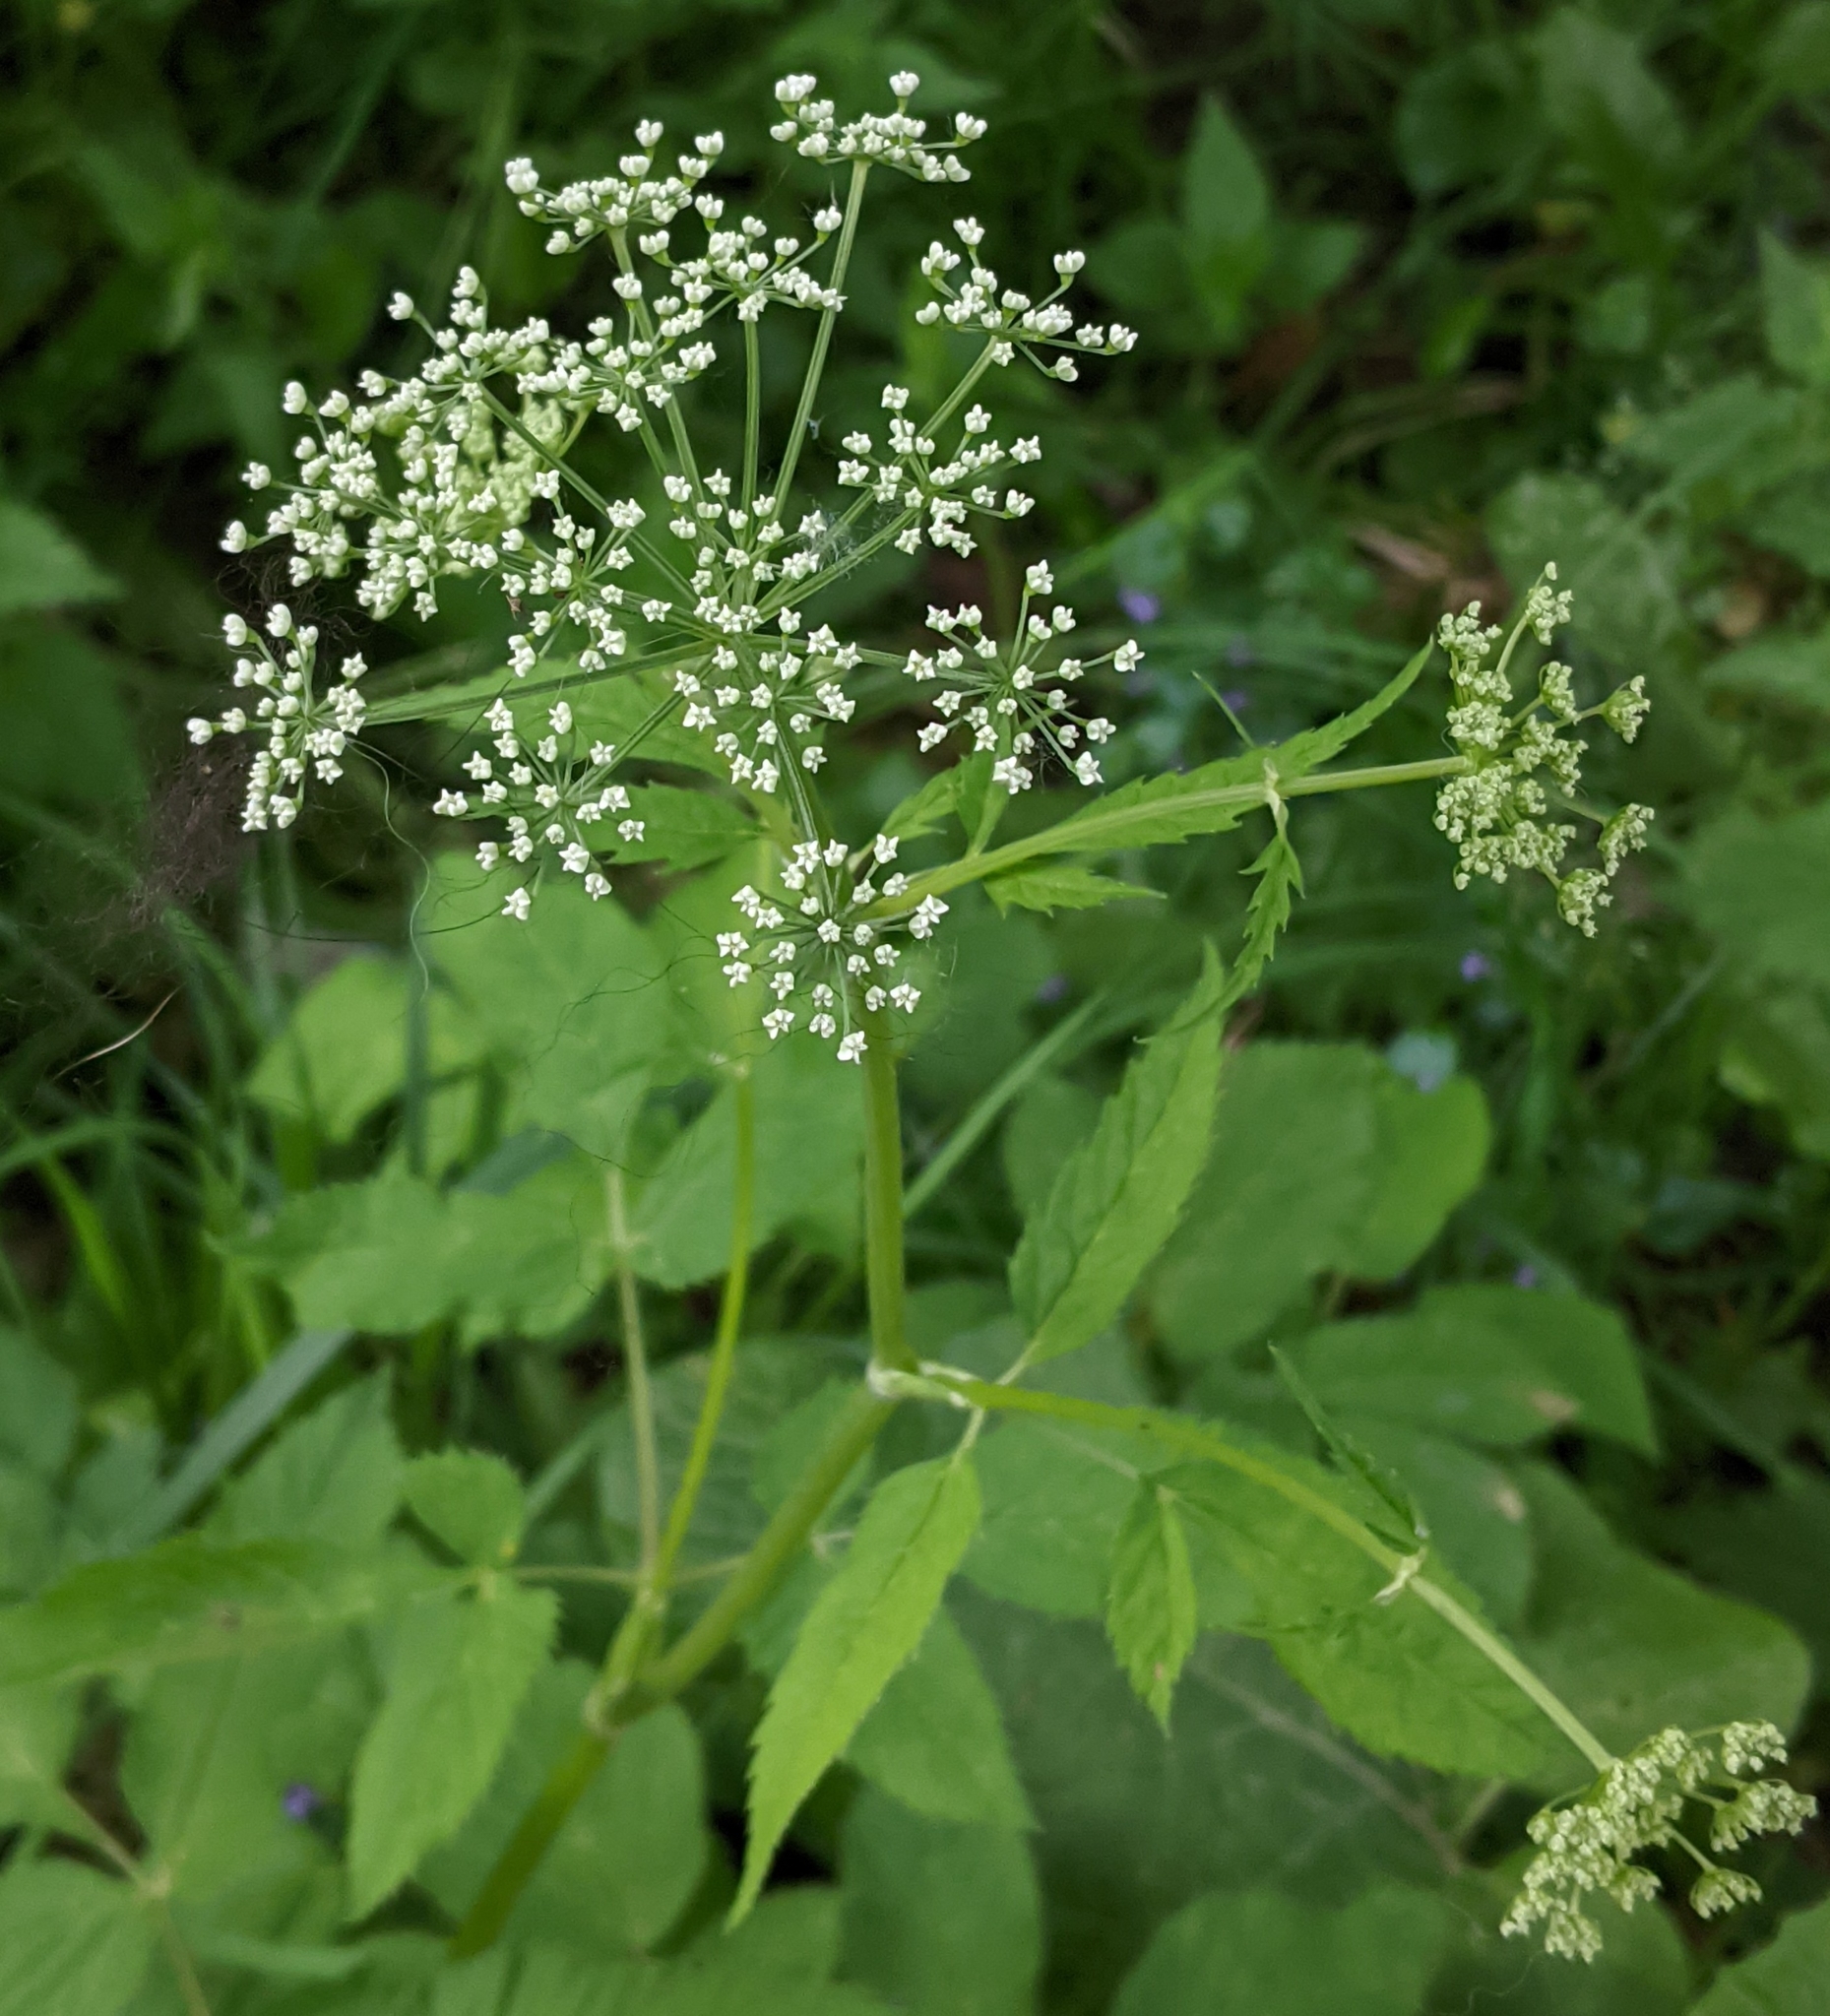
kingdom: Plantae
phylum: Tracheophyta
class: Magnoliopsida
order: Apiales
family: Apiaceae
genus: Aegopodium
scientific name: Aegopodium podagraria
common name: Ground-elder
